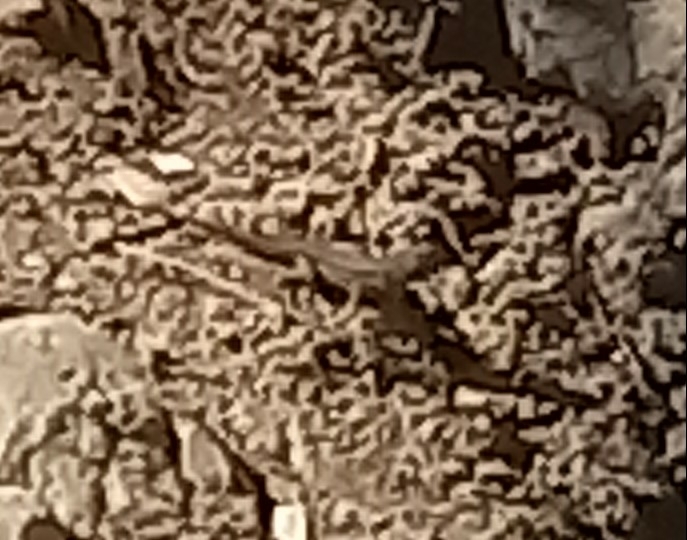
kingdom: Animalia
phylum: Chordata
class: Squamata
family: Phrynosomatidae
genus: Sceloporus
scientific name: Sceloporus occidentalis
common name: Western fence lizard
